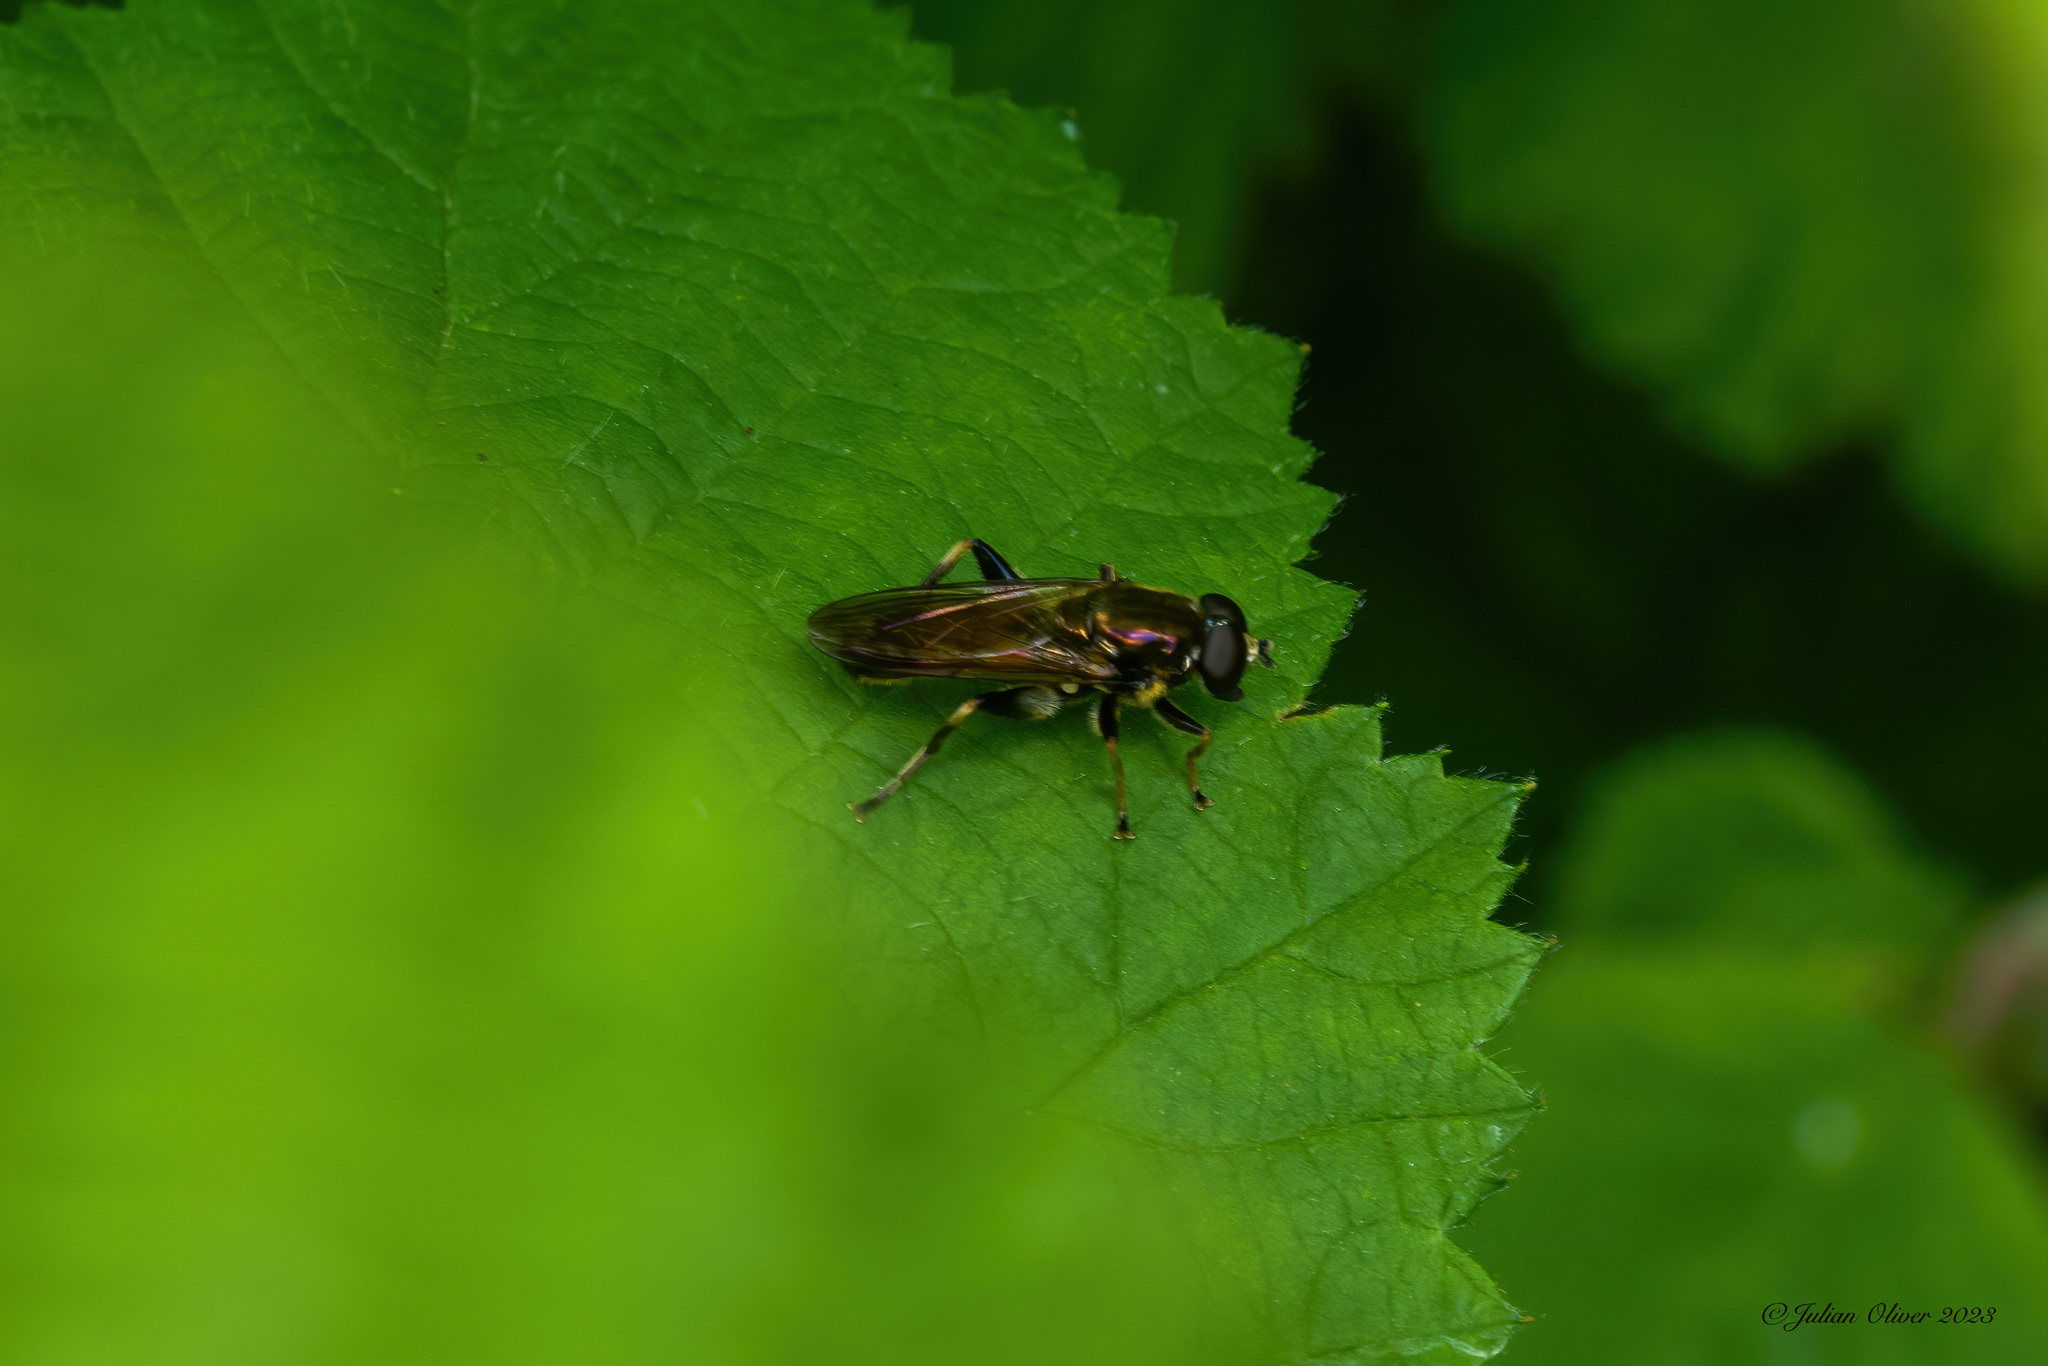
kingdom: Animalia
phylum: Arthropoda
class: Insecta
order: Diptera
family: Syrphidae
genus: Xylota
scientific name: Xylota segnis
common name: Brown-toed forest fly
